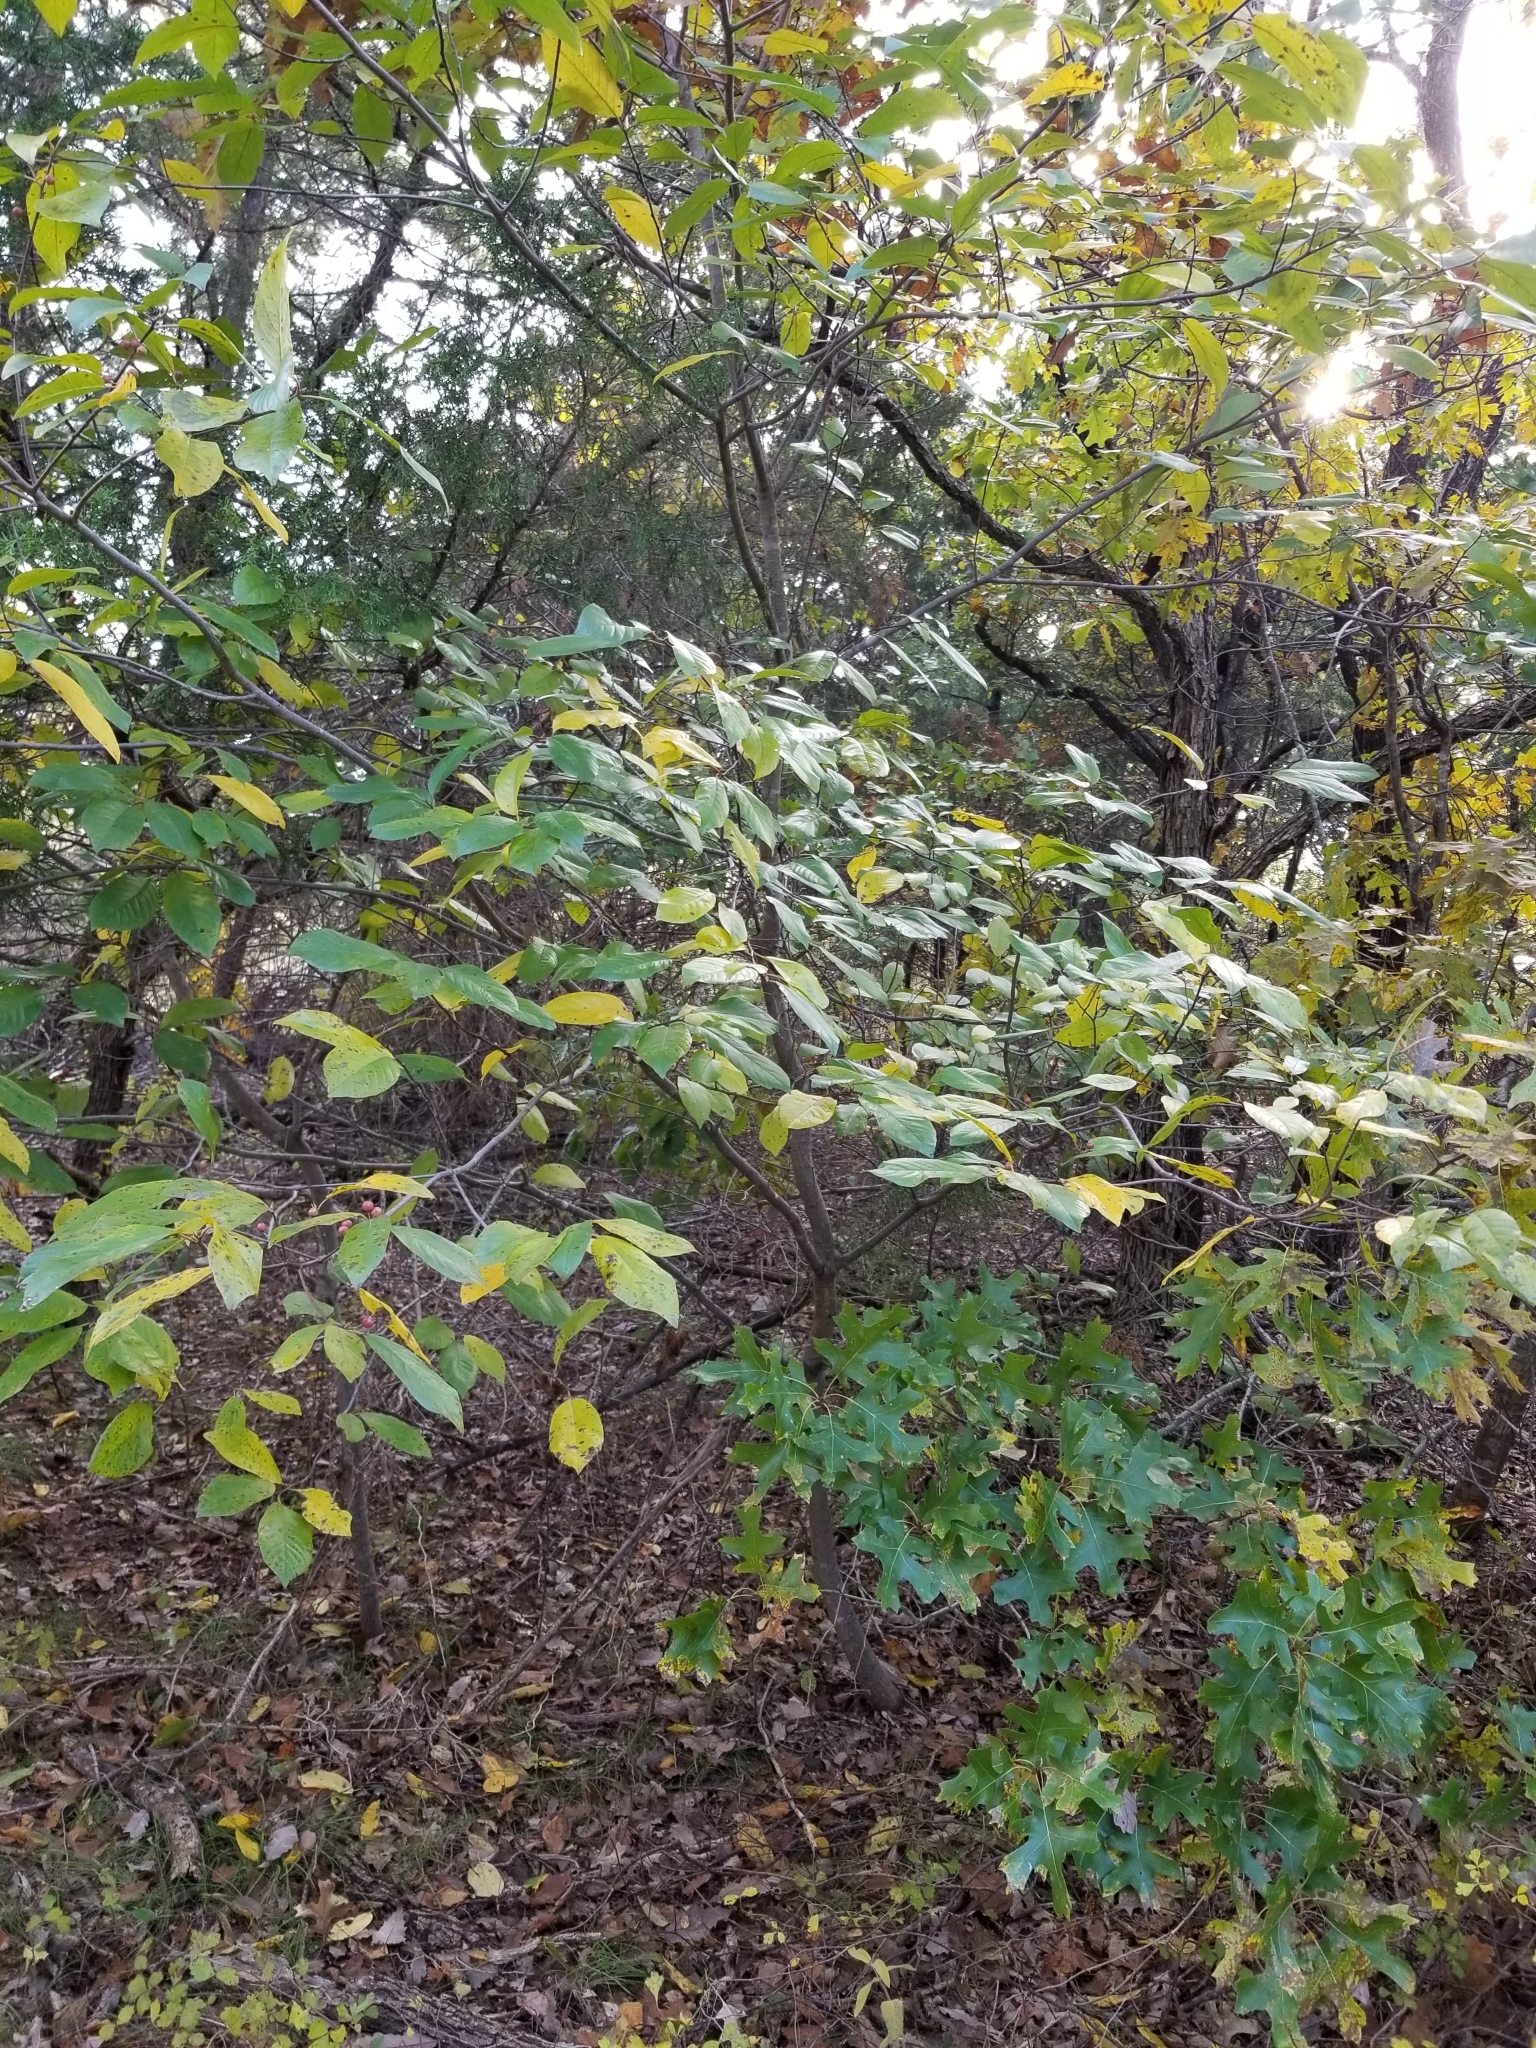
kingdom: Plantae
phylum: Tracheophyta
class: Magnoliopsida
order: Rosales
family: Rhamnaceae
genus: Frangula
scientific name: Frangula caroliniana
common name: Carolina buckthorn
